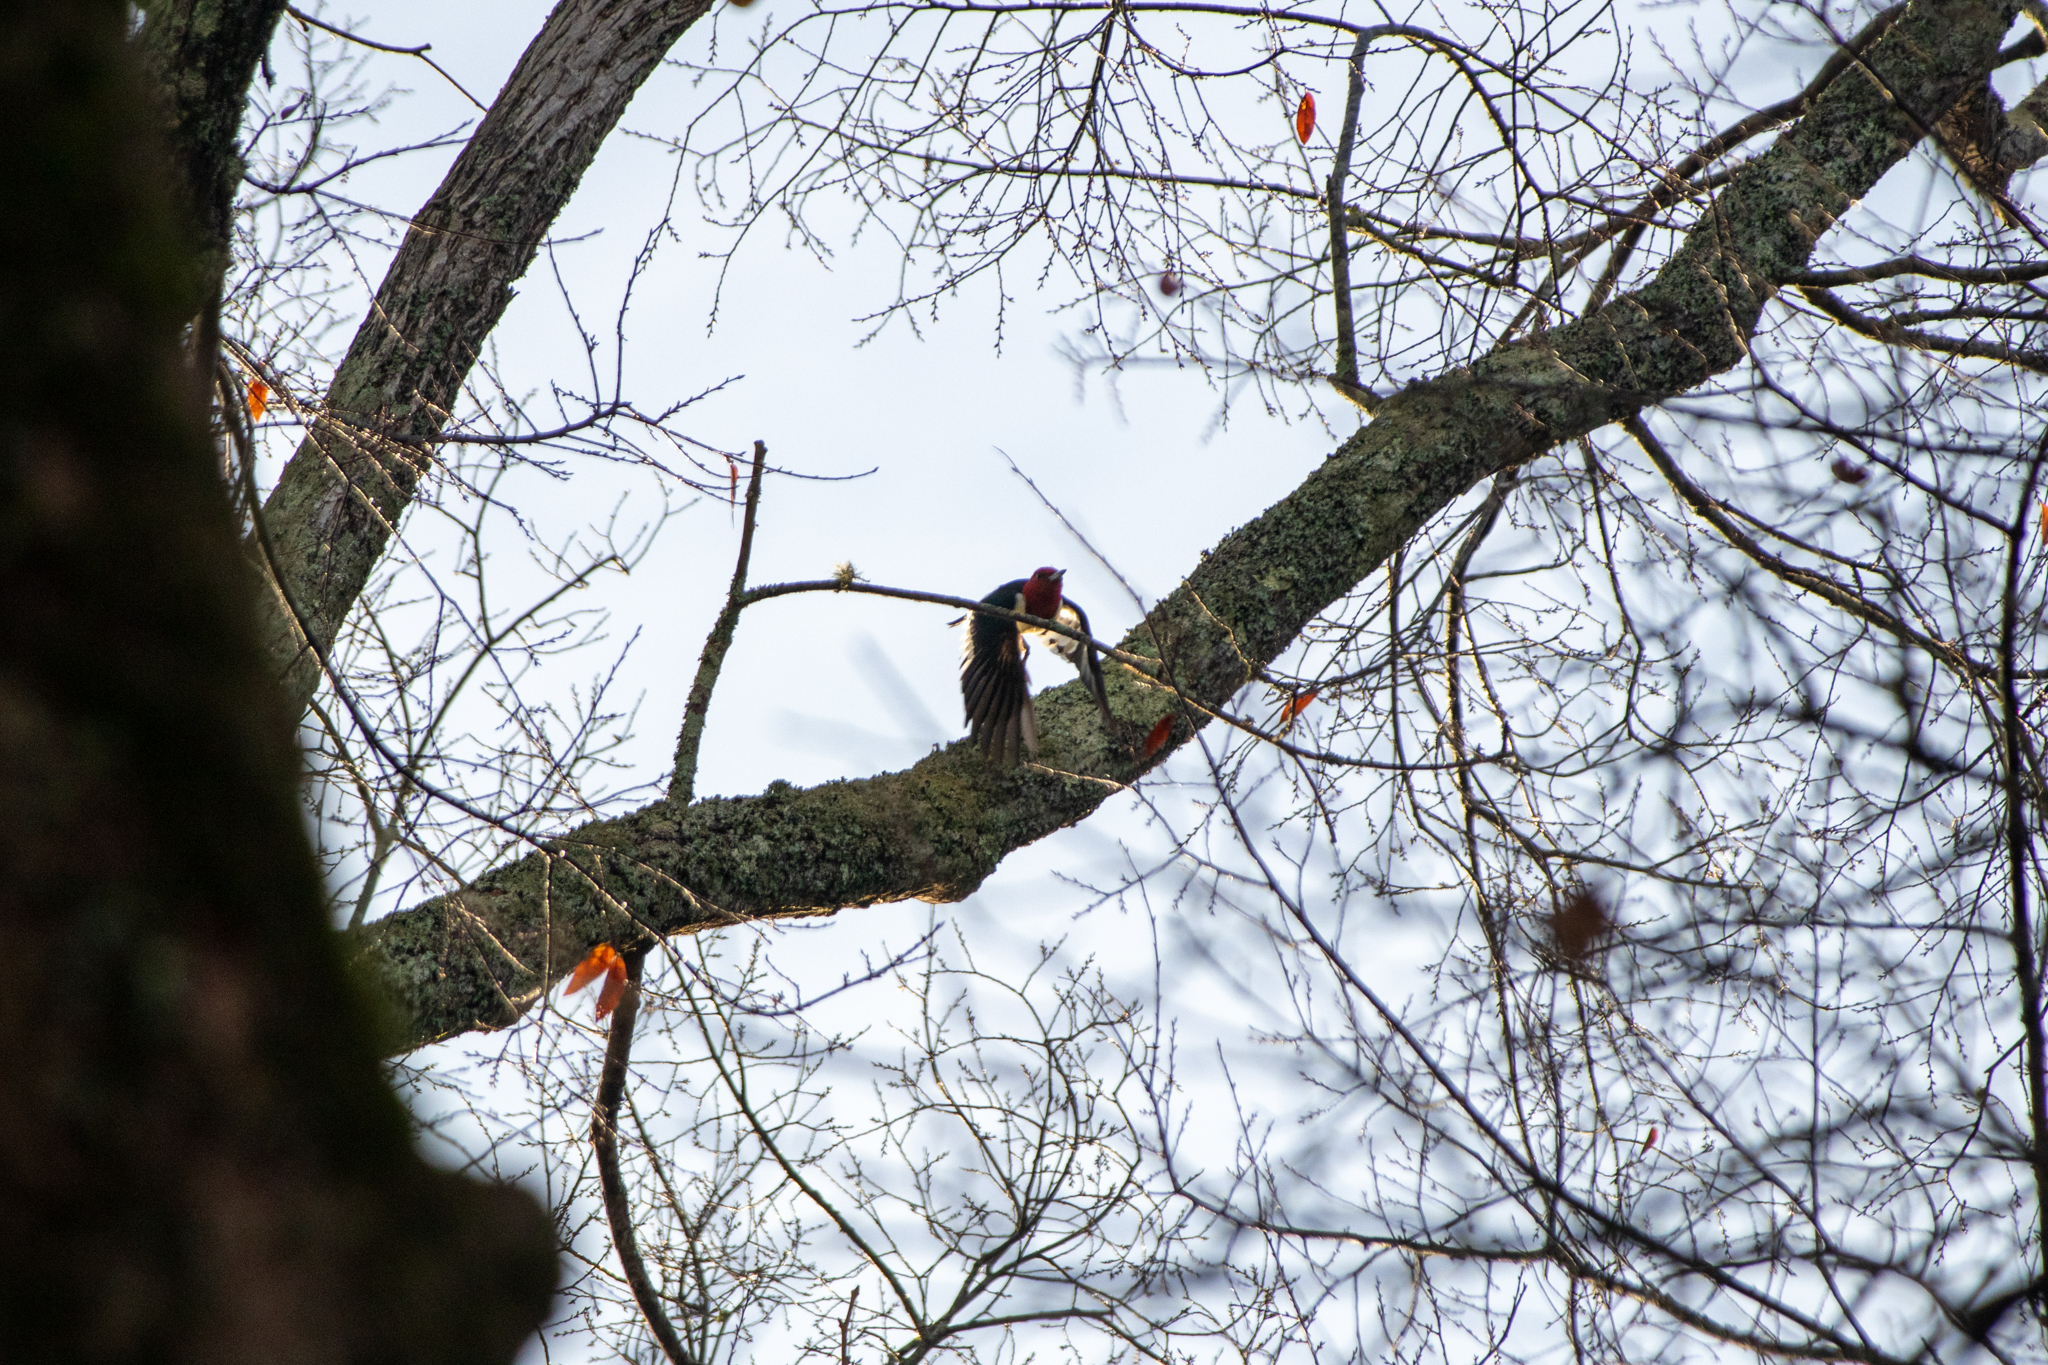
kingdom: Animalia
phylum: Chordata
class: Aves
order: Piciformes
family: Picidae
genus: Melanerpes
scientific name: Melanerpes erythrocephalus
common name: Red-headed woodpecker
